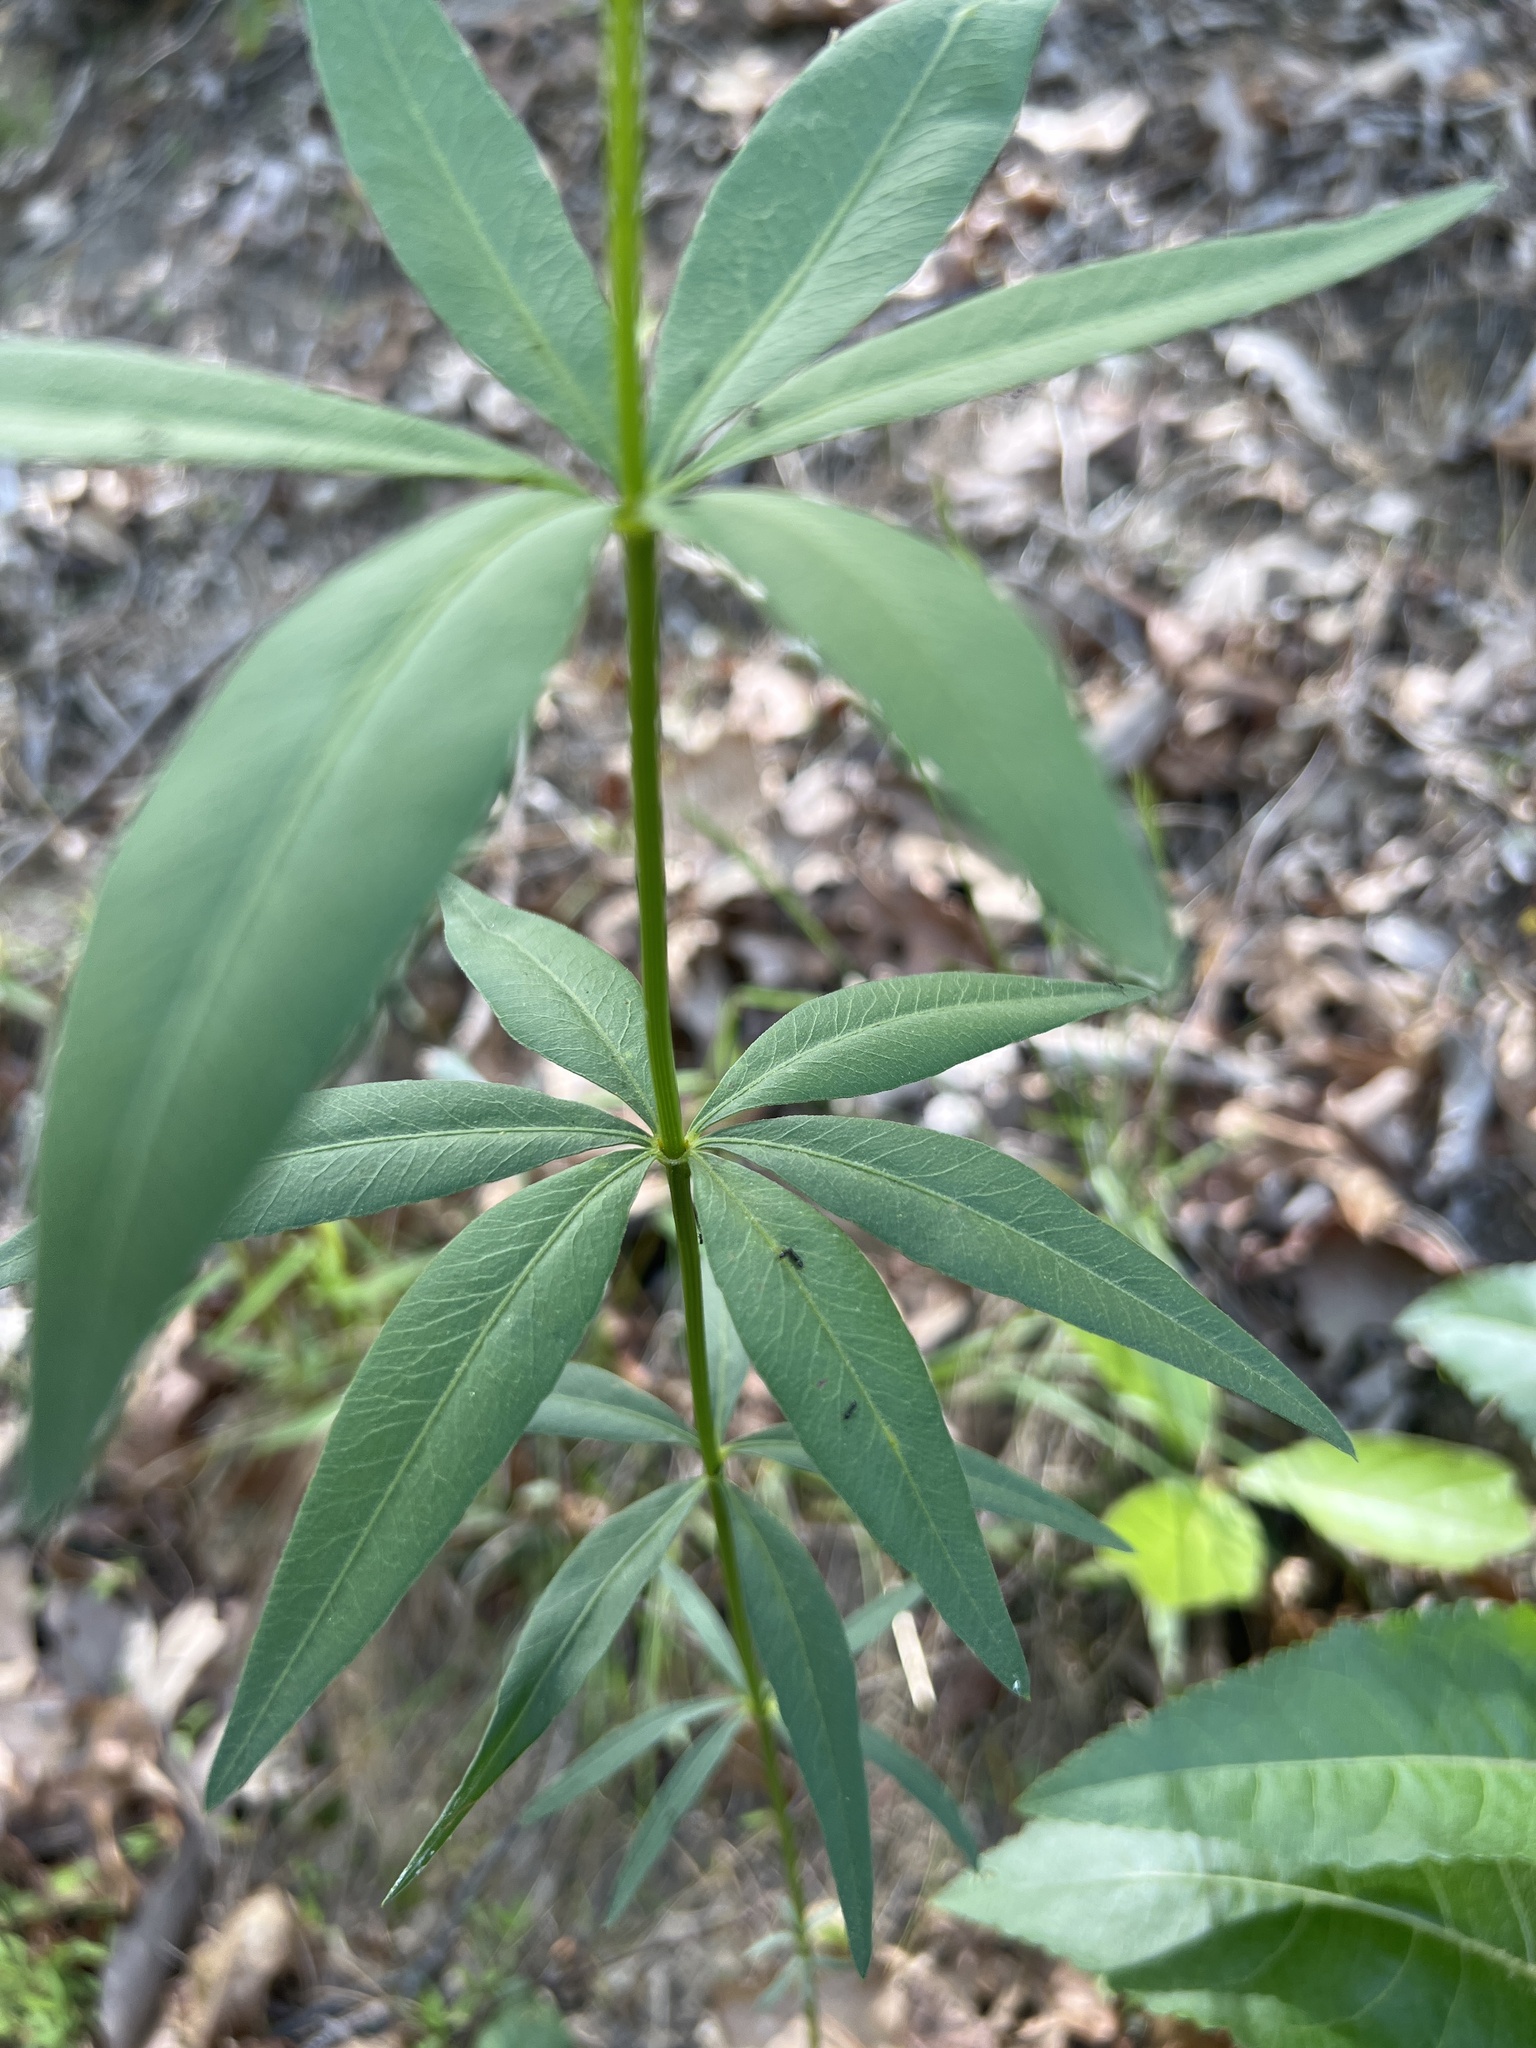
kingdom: Plantae
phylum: Tracheophyta
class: Magnoliopsida
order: Asterales
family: Asteraceae
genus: Coreopsis
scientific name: Coreopsis major
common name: Forest tickseed
